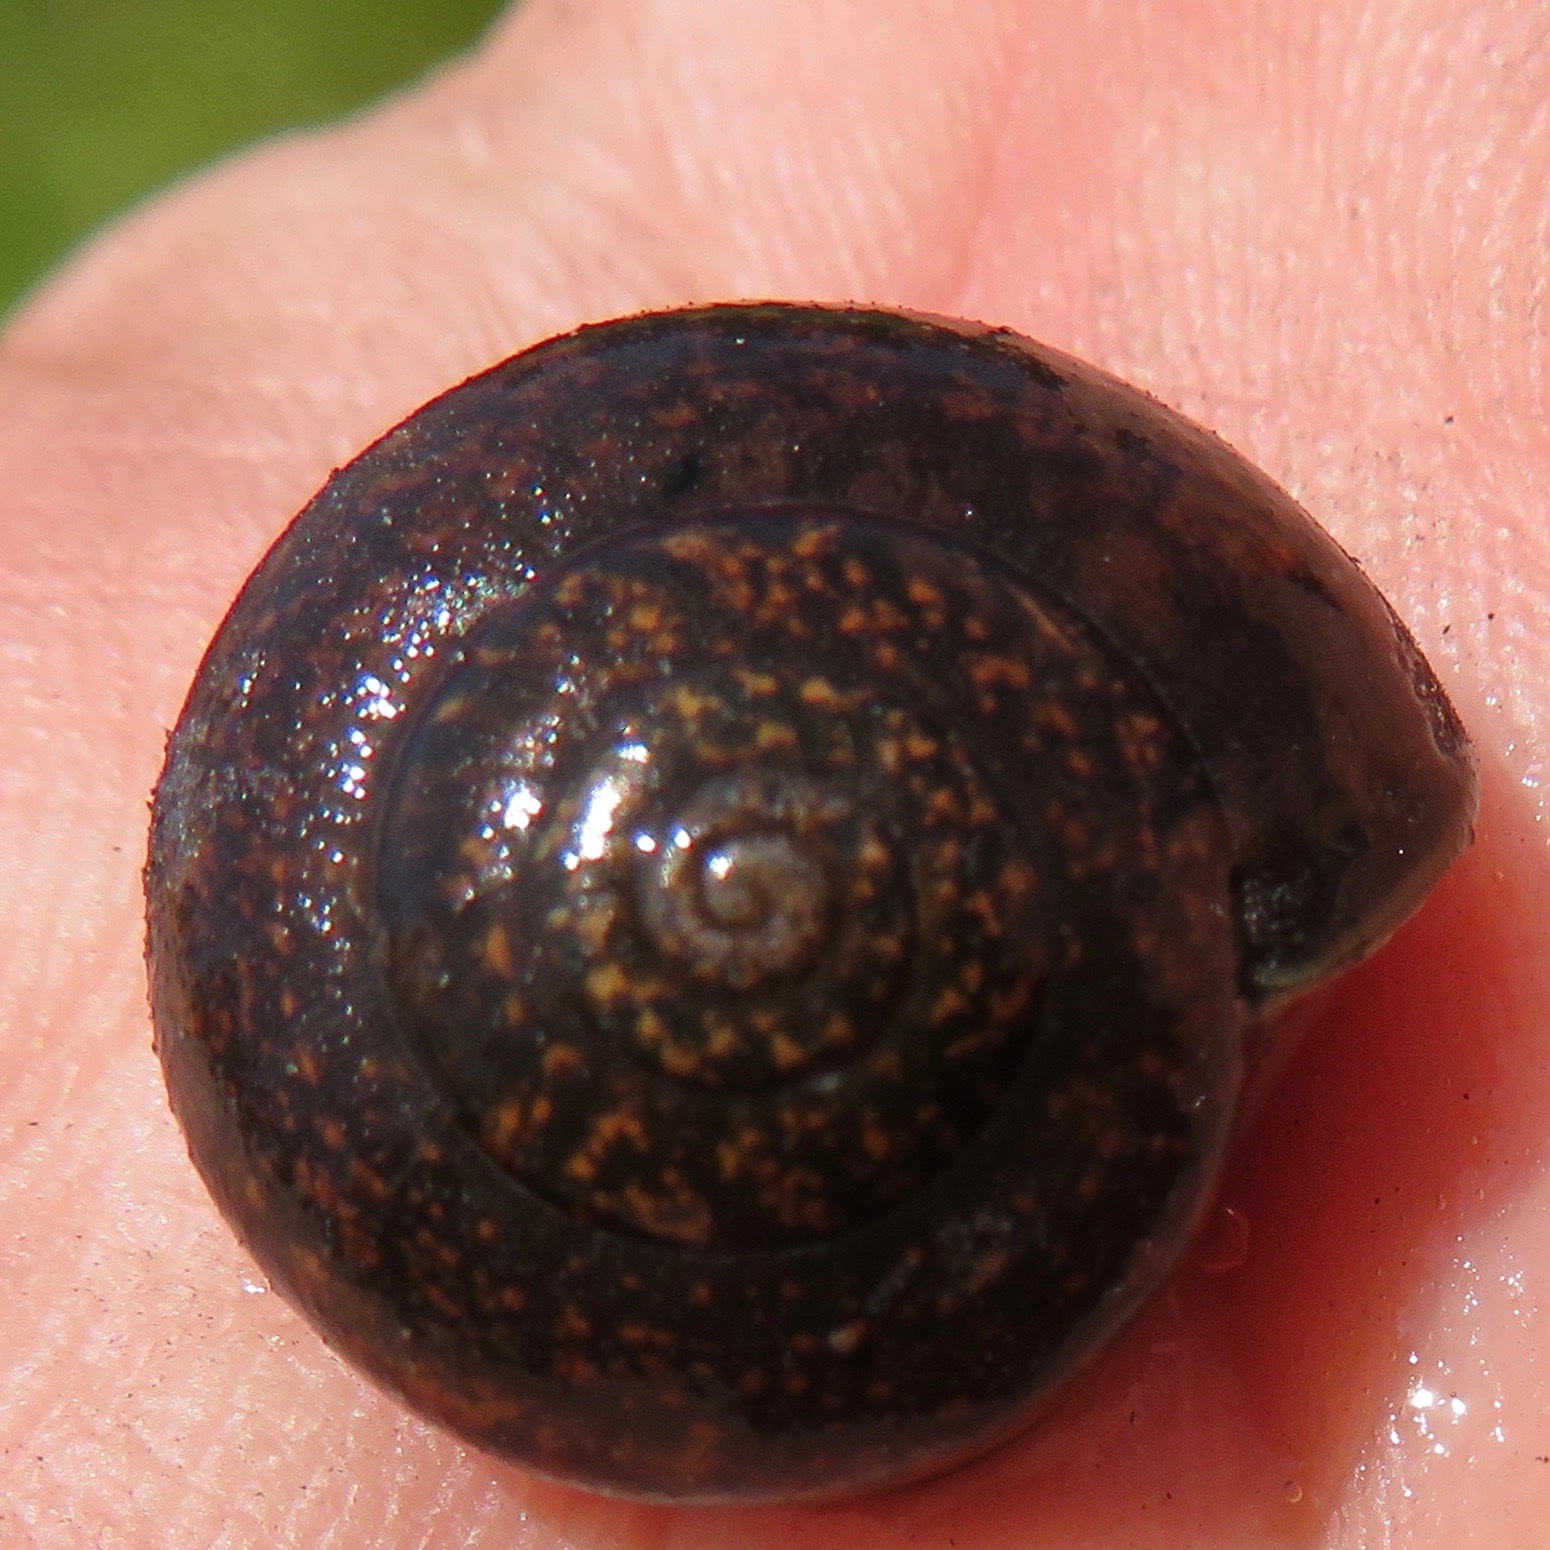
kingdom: Animalia
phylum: Mollusca
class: Gastropoda
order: Stylommatophora
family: Xanthonychidae
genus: Helminthoglypta
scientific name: Helminthoglypta
